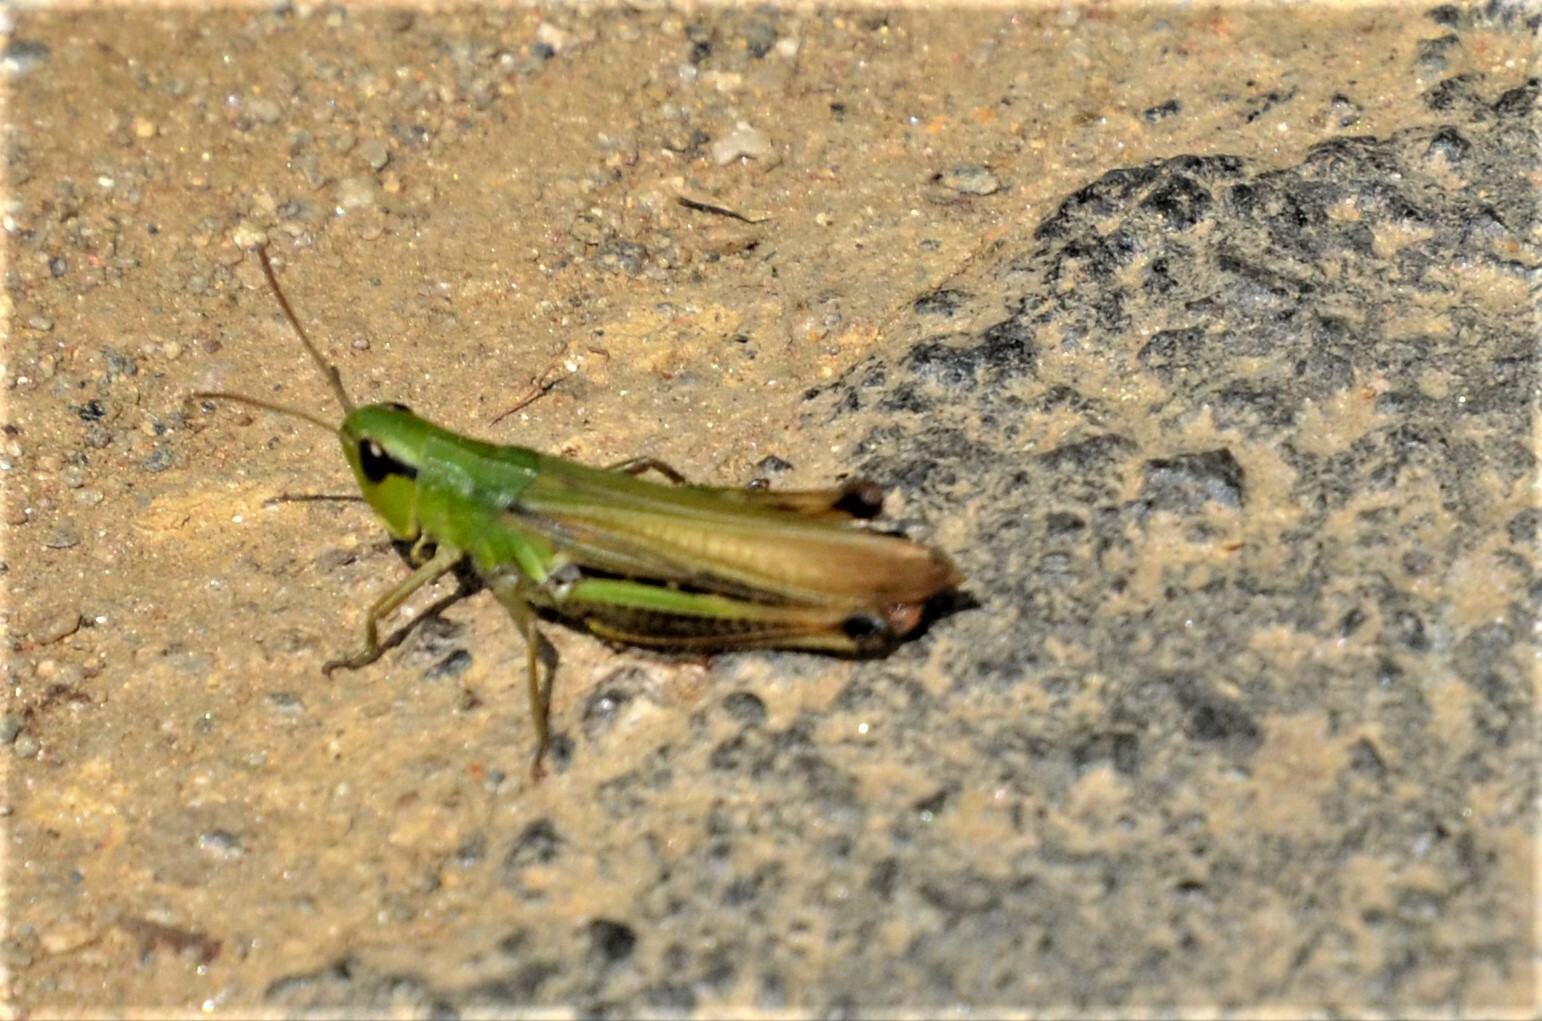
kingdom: Animalia
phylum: Arthropoda
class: Insecta
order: Orthoptera
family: Acrididae
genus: Pseudochorthippus
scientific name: Pseudochorthippus parallelus
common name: Meadow grasshopper
